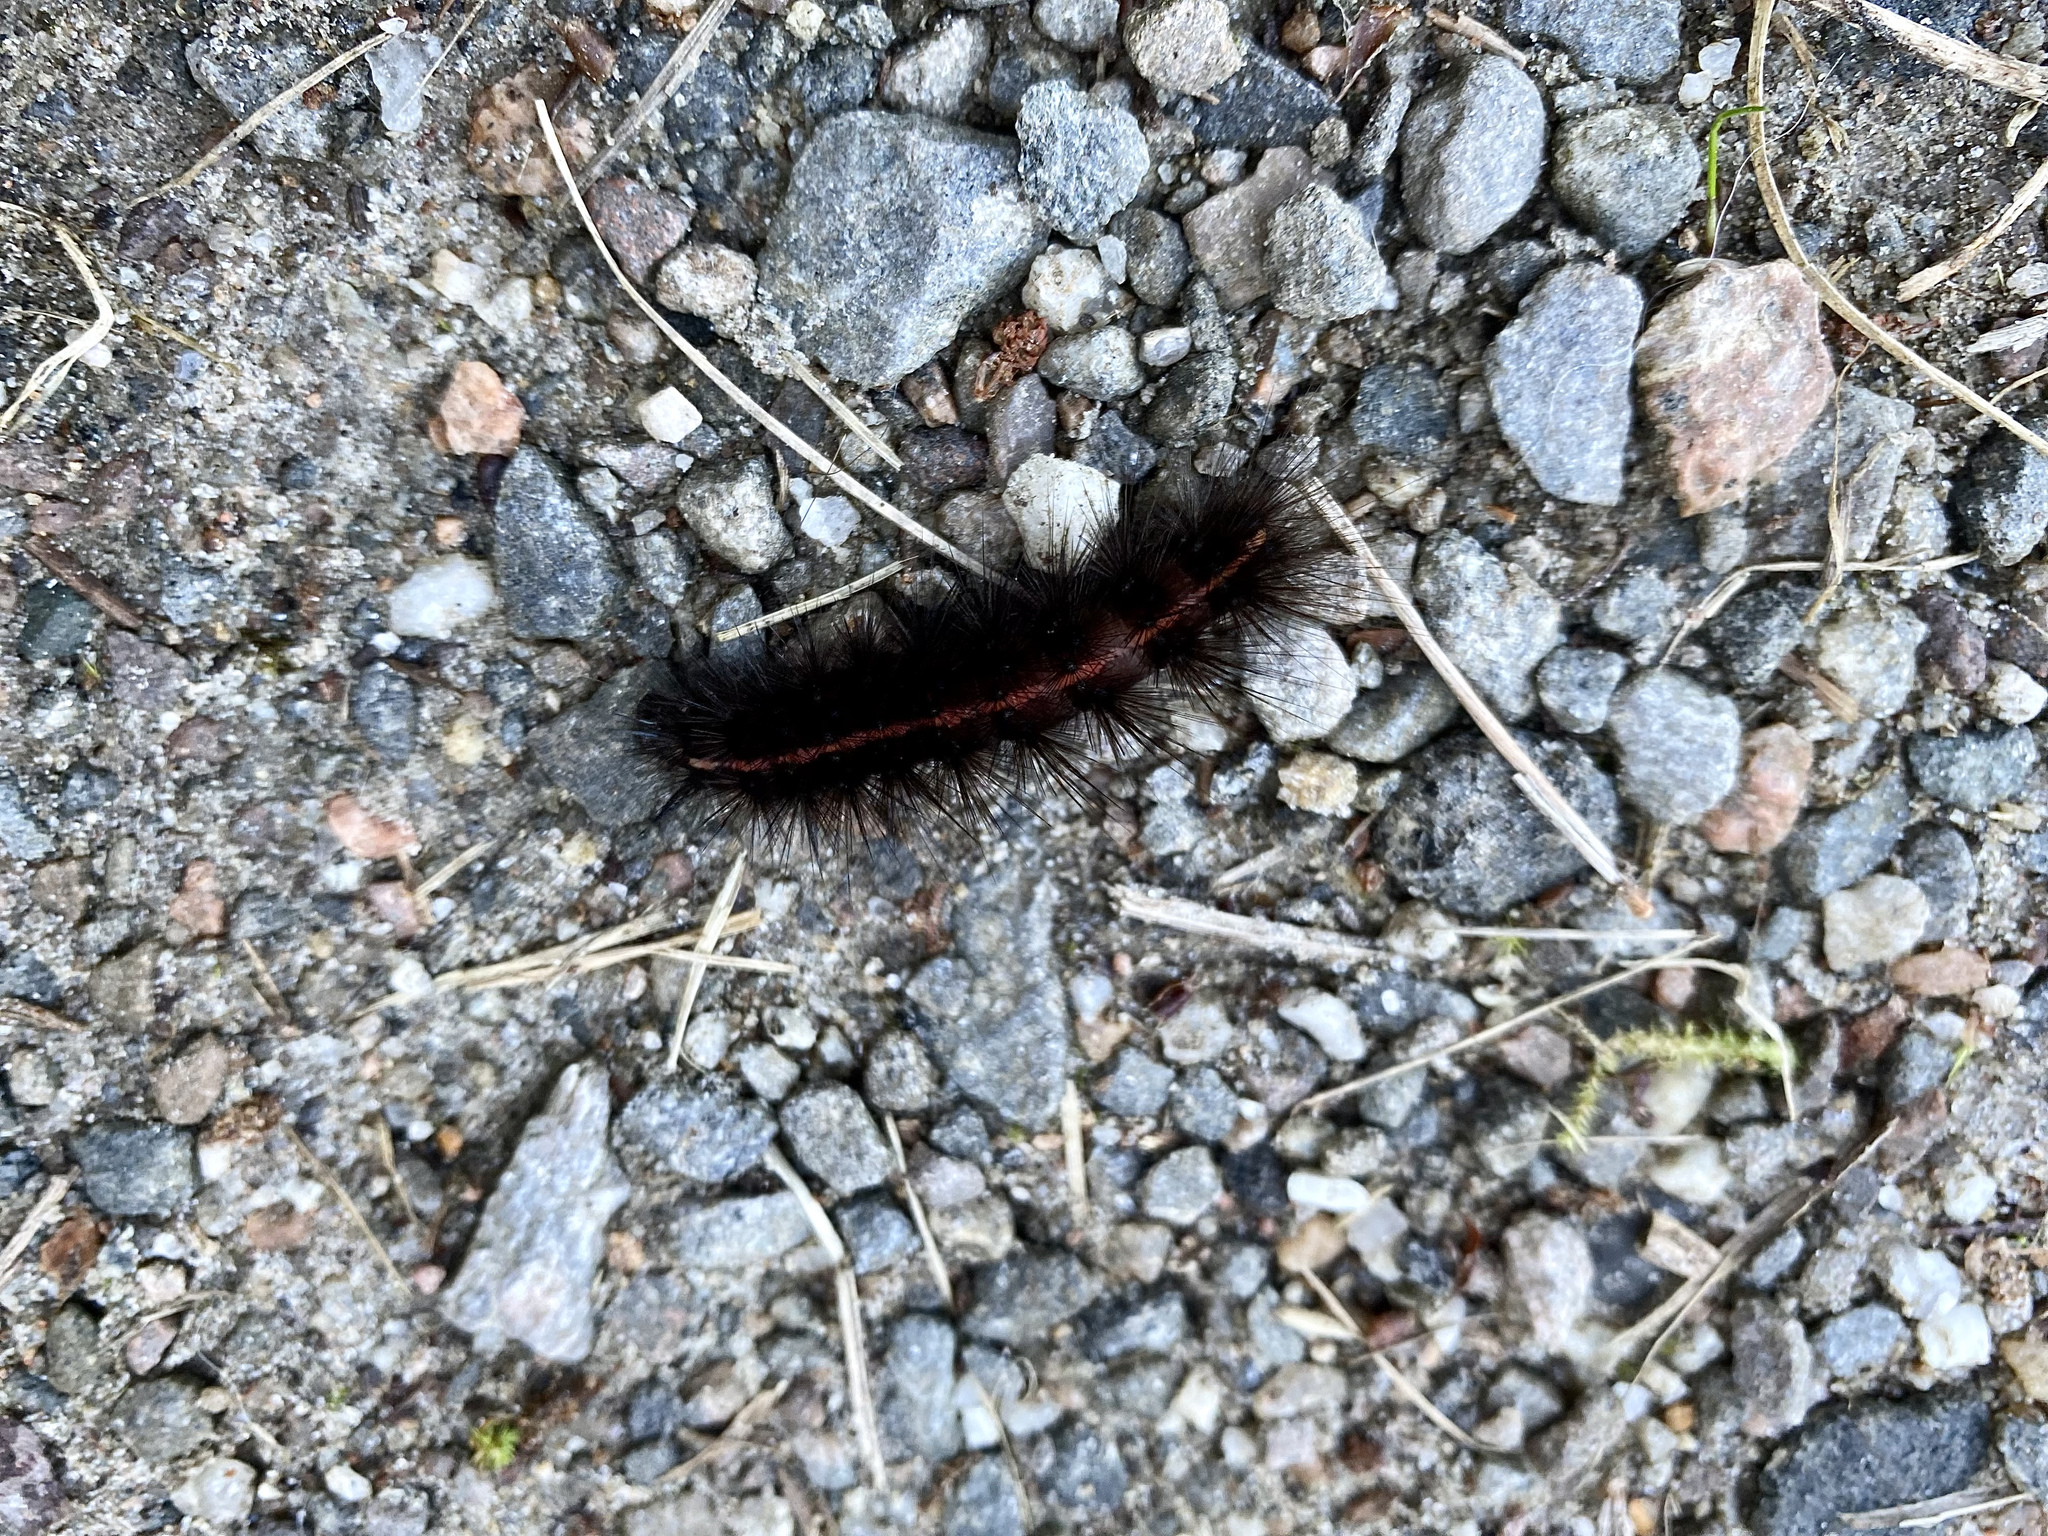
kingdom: Animalia
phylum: Arthropoda
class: Insecta
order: Lepidoptera
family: Erebidae
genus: Spilosoma
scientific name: Spilosoma lubricipeda
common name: White ermine
